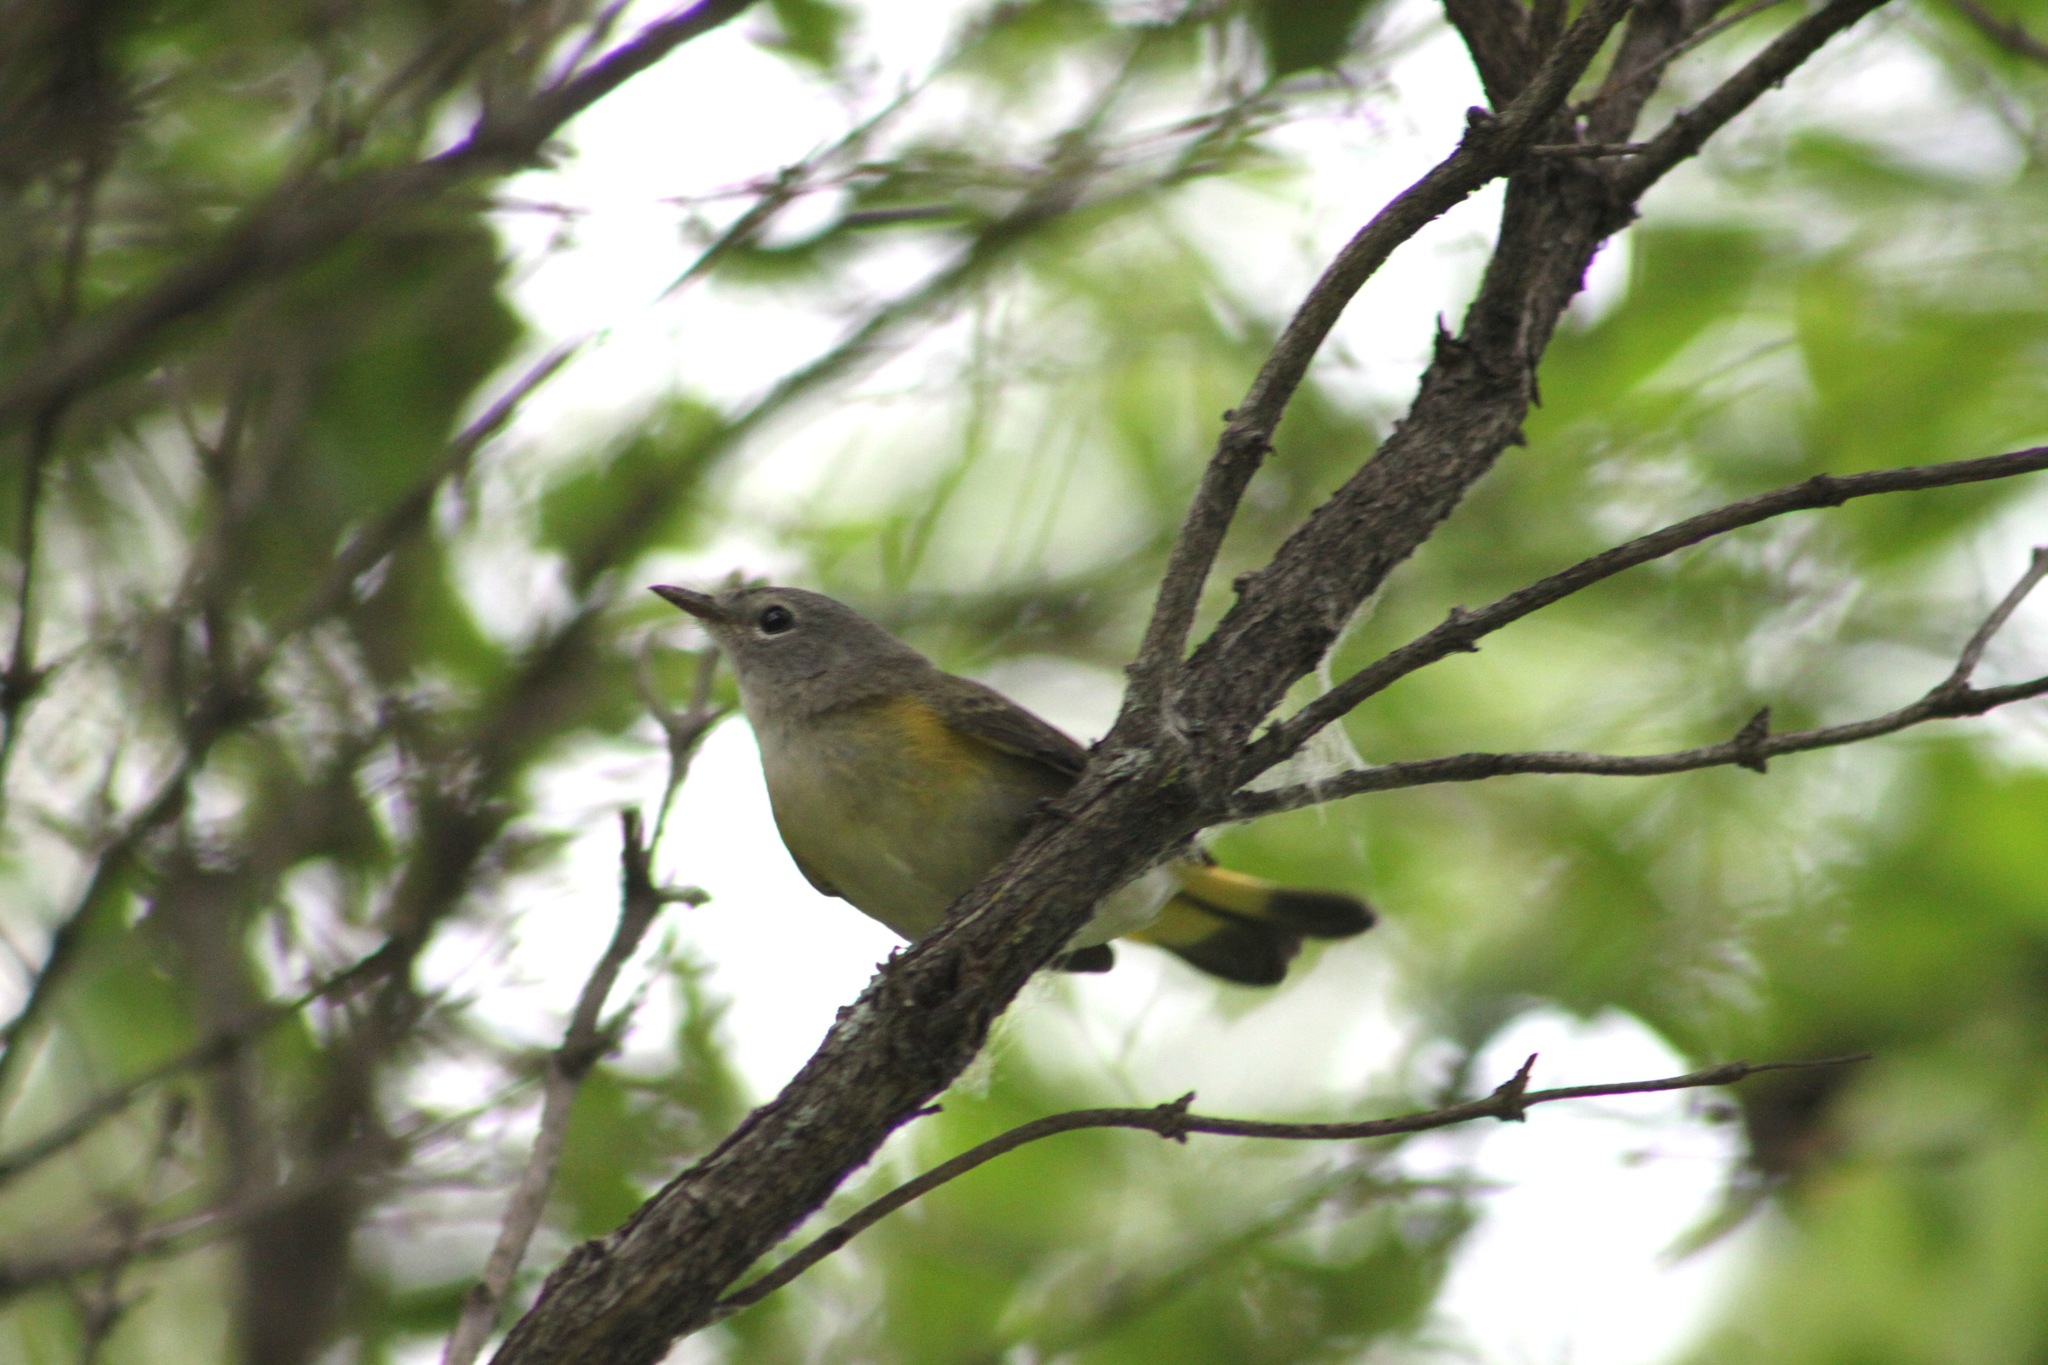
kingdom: Animalia
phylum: Chordata
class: Aves
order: Passeriformes
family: Parulidae
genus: Setophaga
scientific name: Setophaga ruticilla
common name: American redstart
